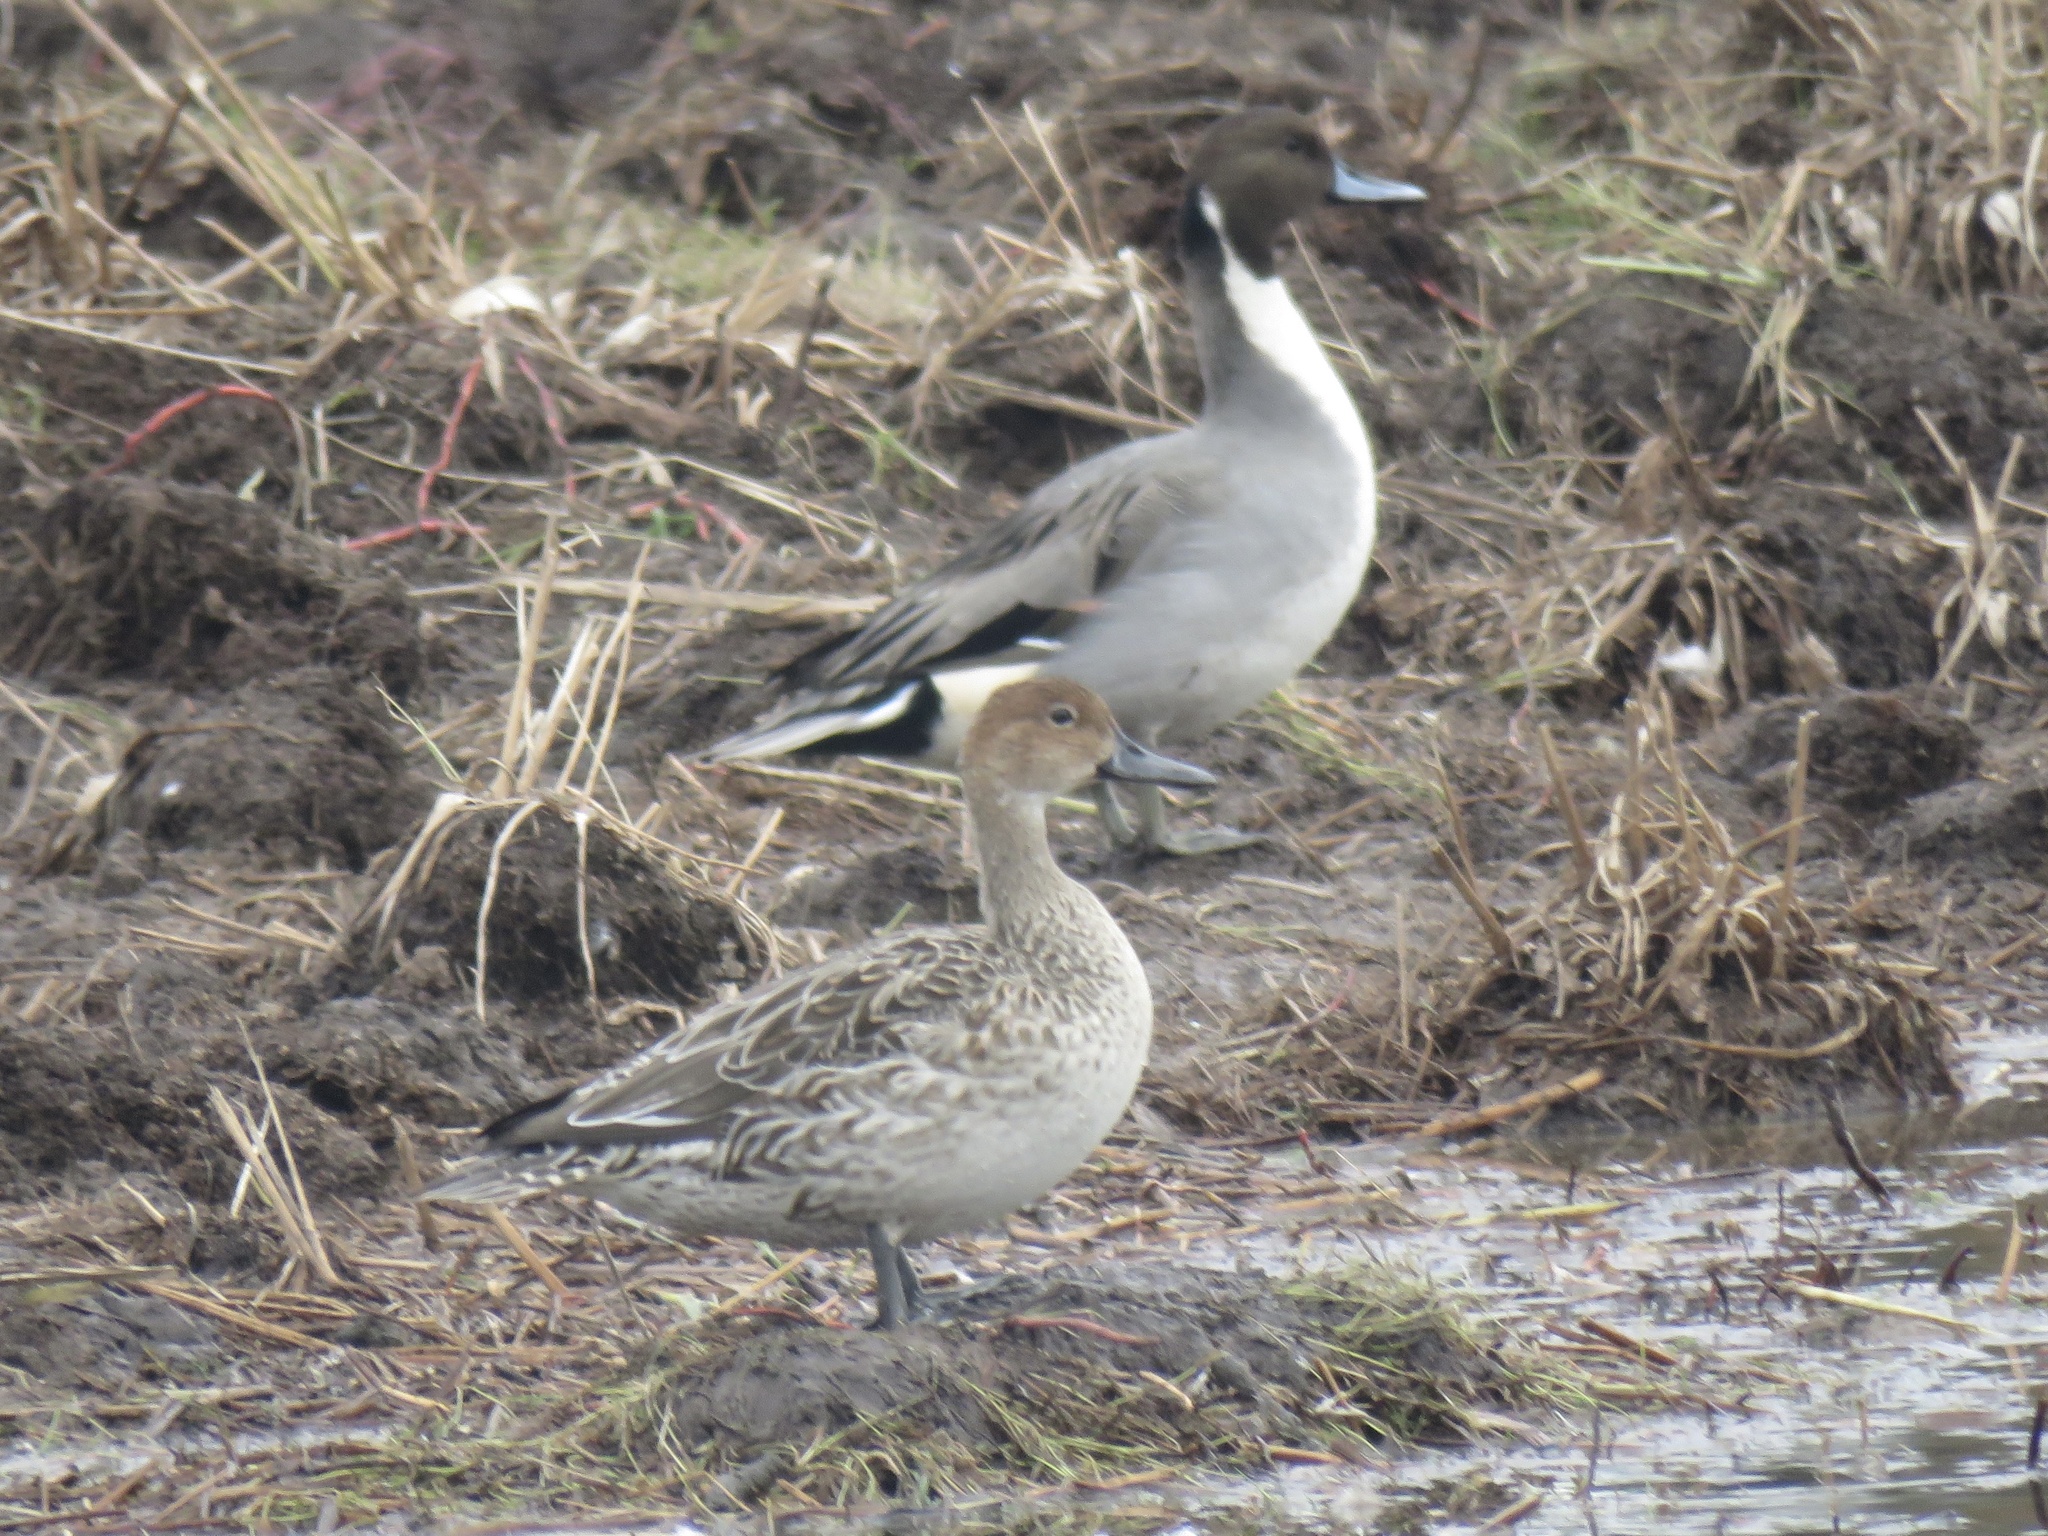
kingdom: Animalia
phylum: Chordata
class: Aves
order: Anseriformes
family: Anatidae
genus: Anas
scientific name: Anas acuta
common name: Northern pintail
